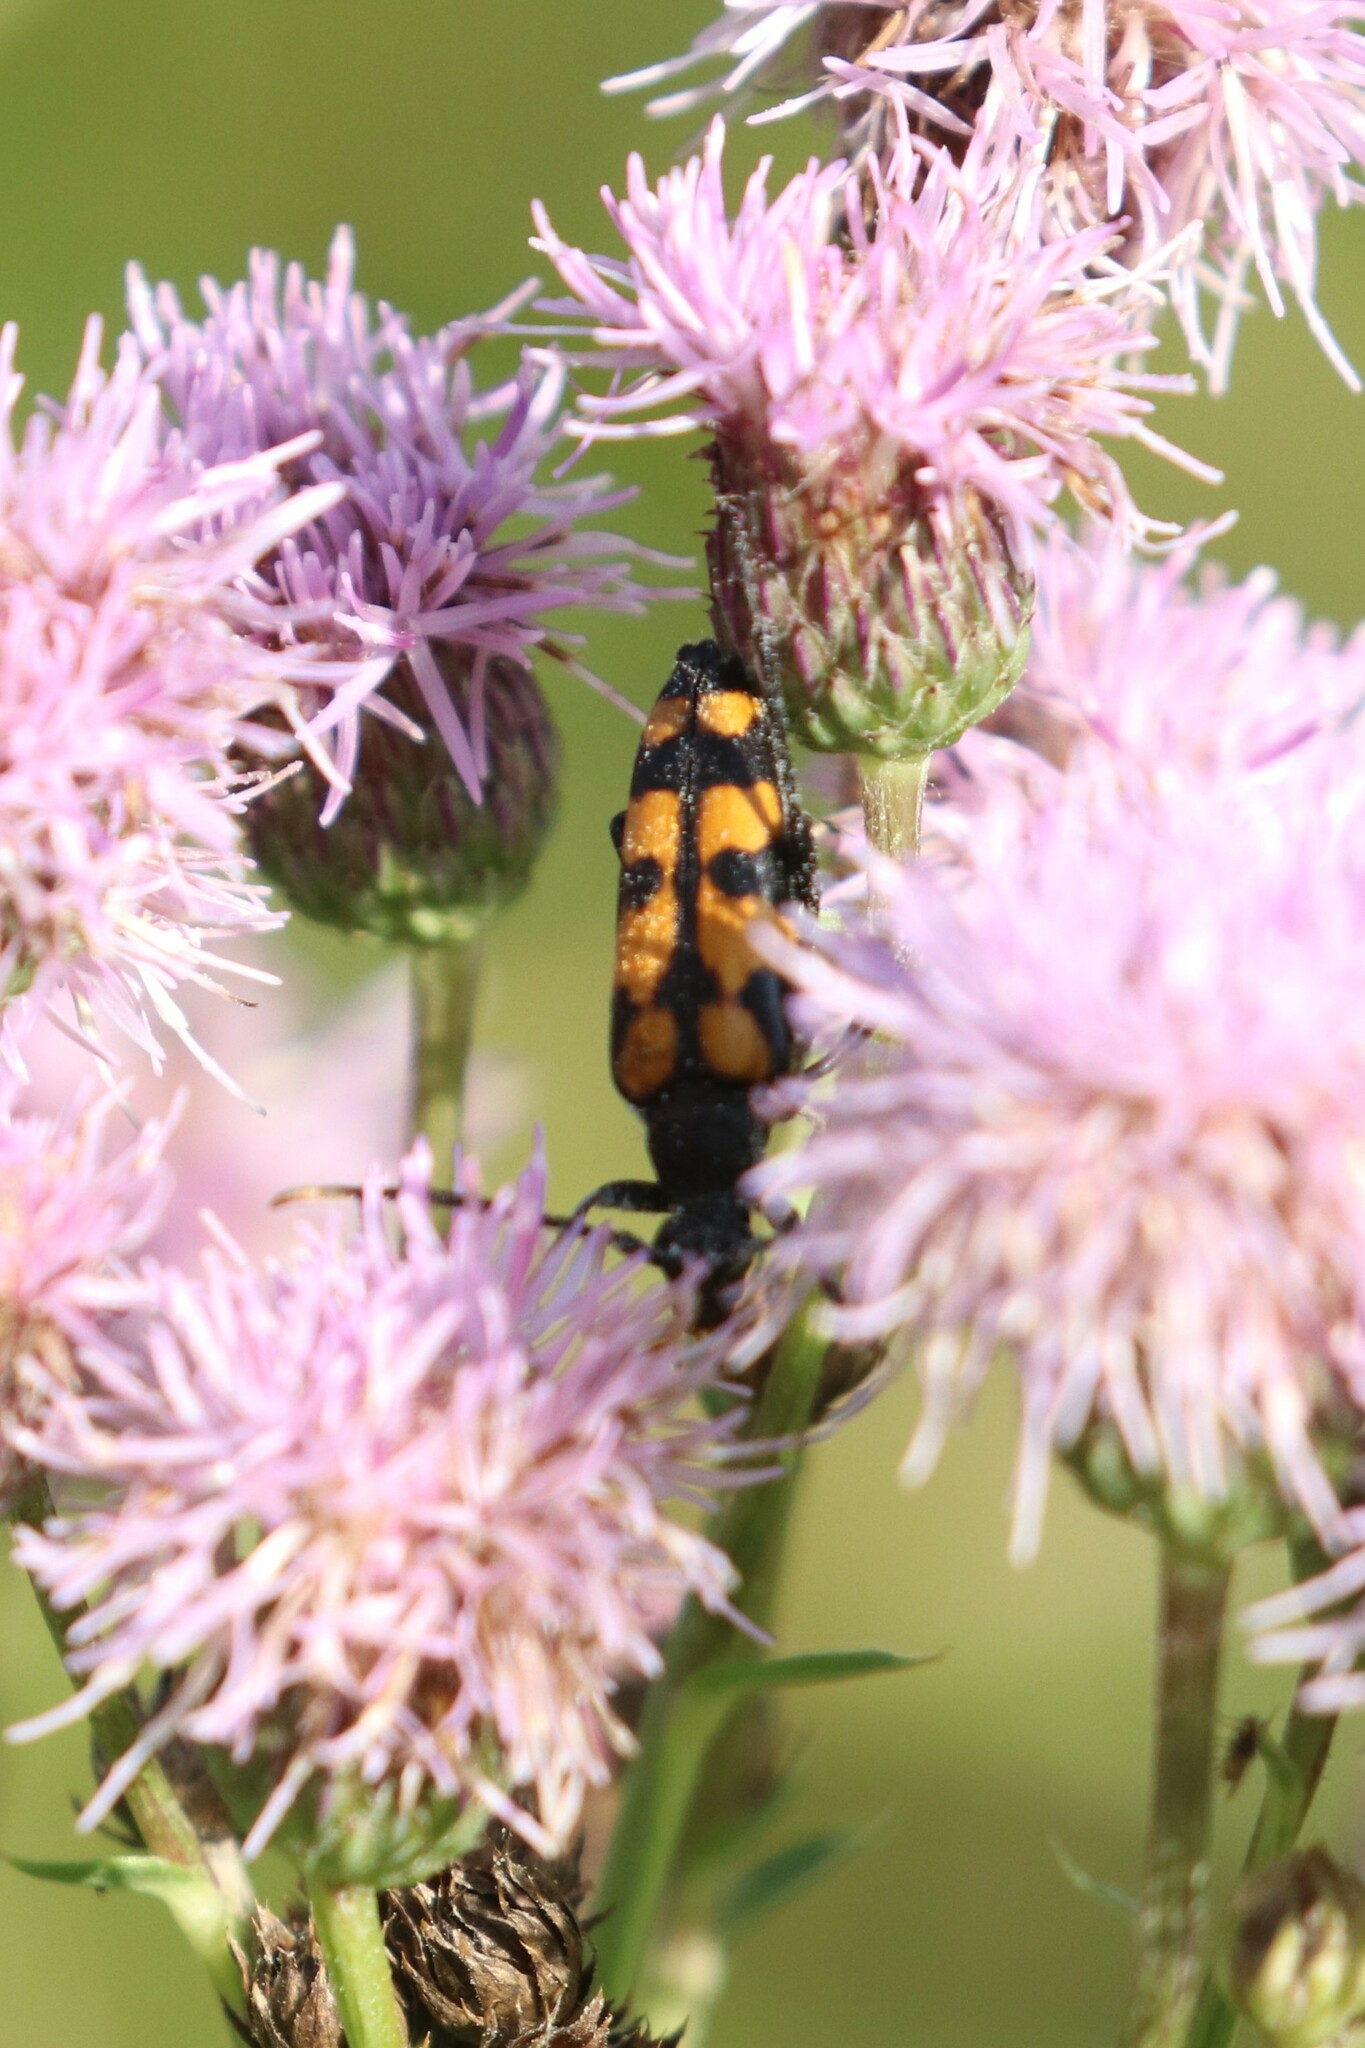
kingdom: Animalia
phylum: Arthropoda
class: Insecta
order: Coleoptera
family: Cerambycidae
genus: Leptura
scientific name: Leptura quadrifasciata
